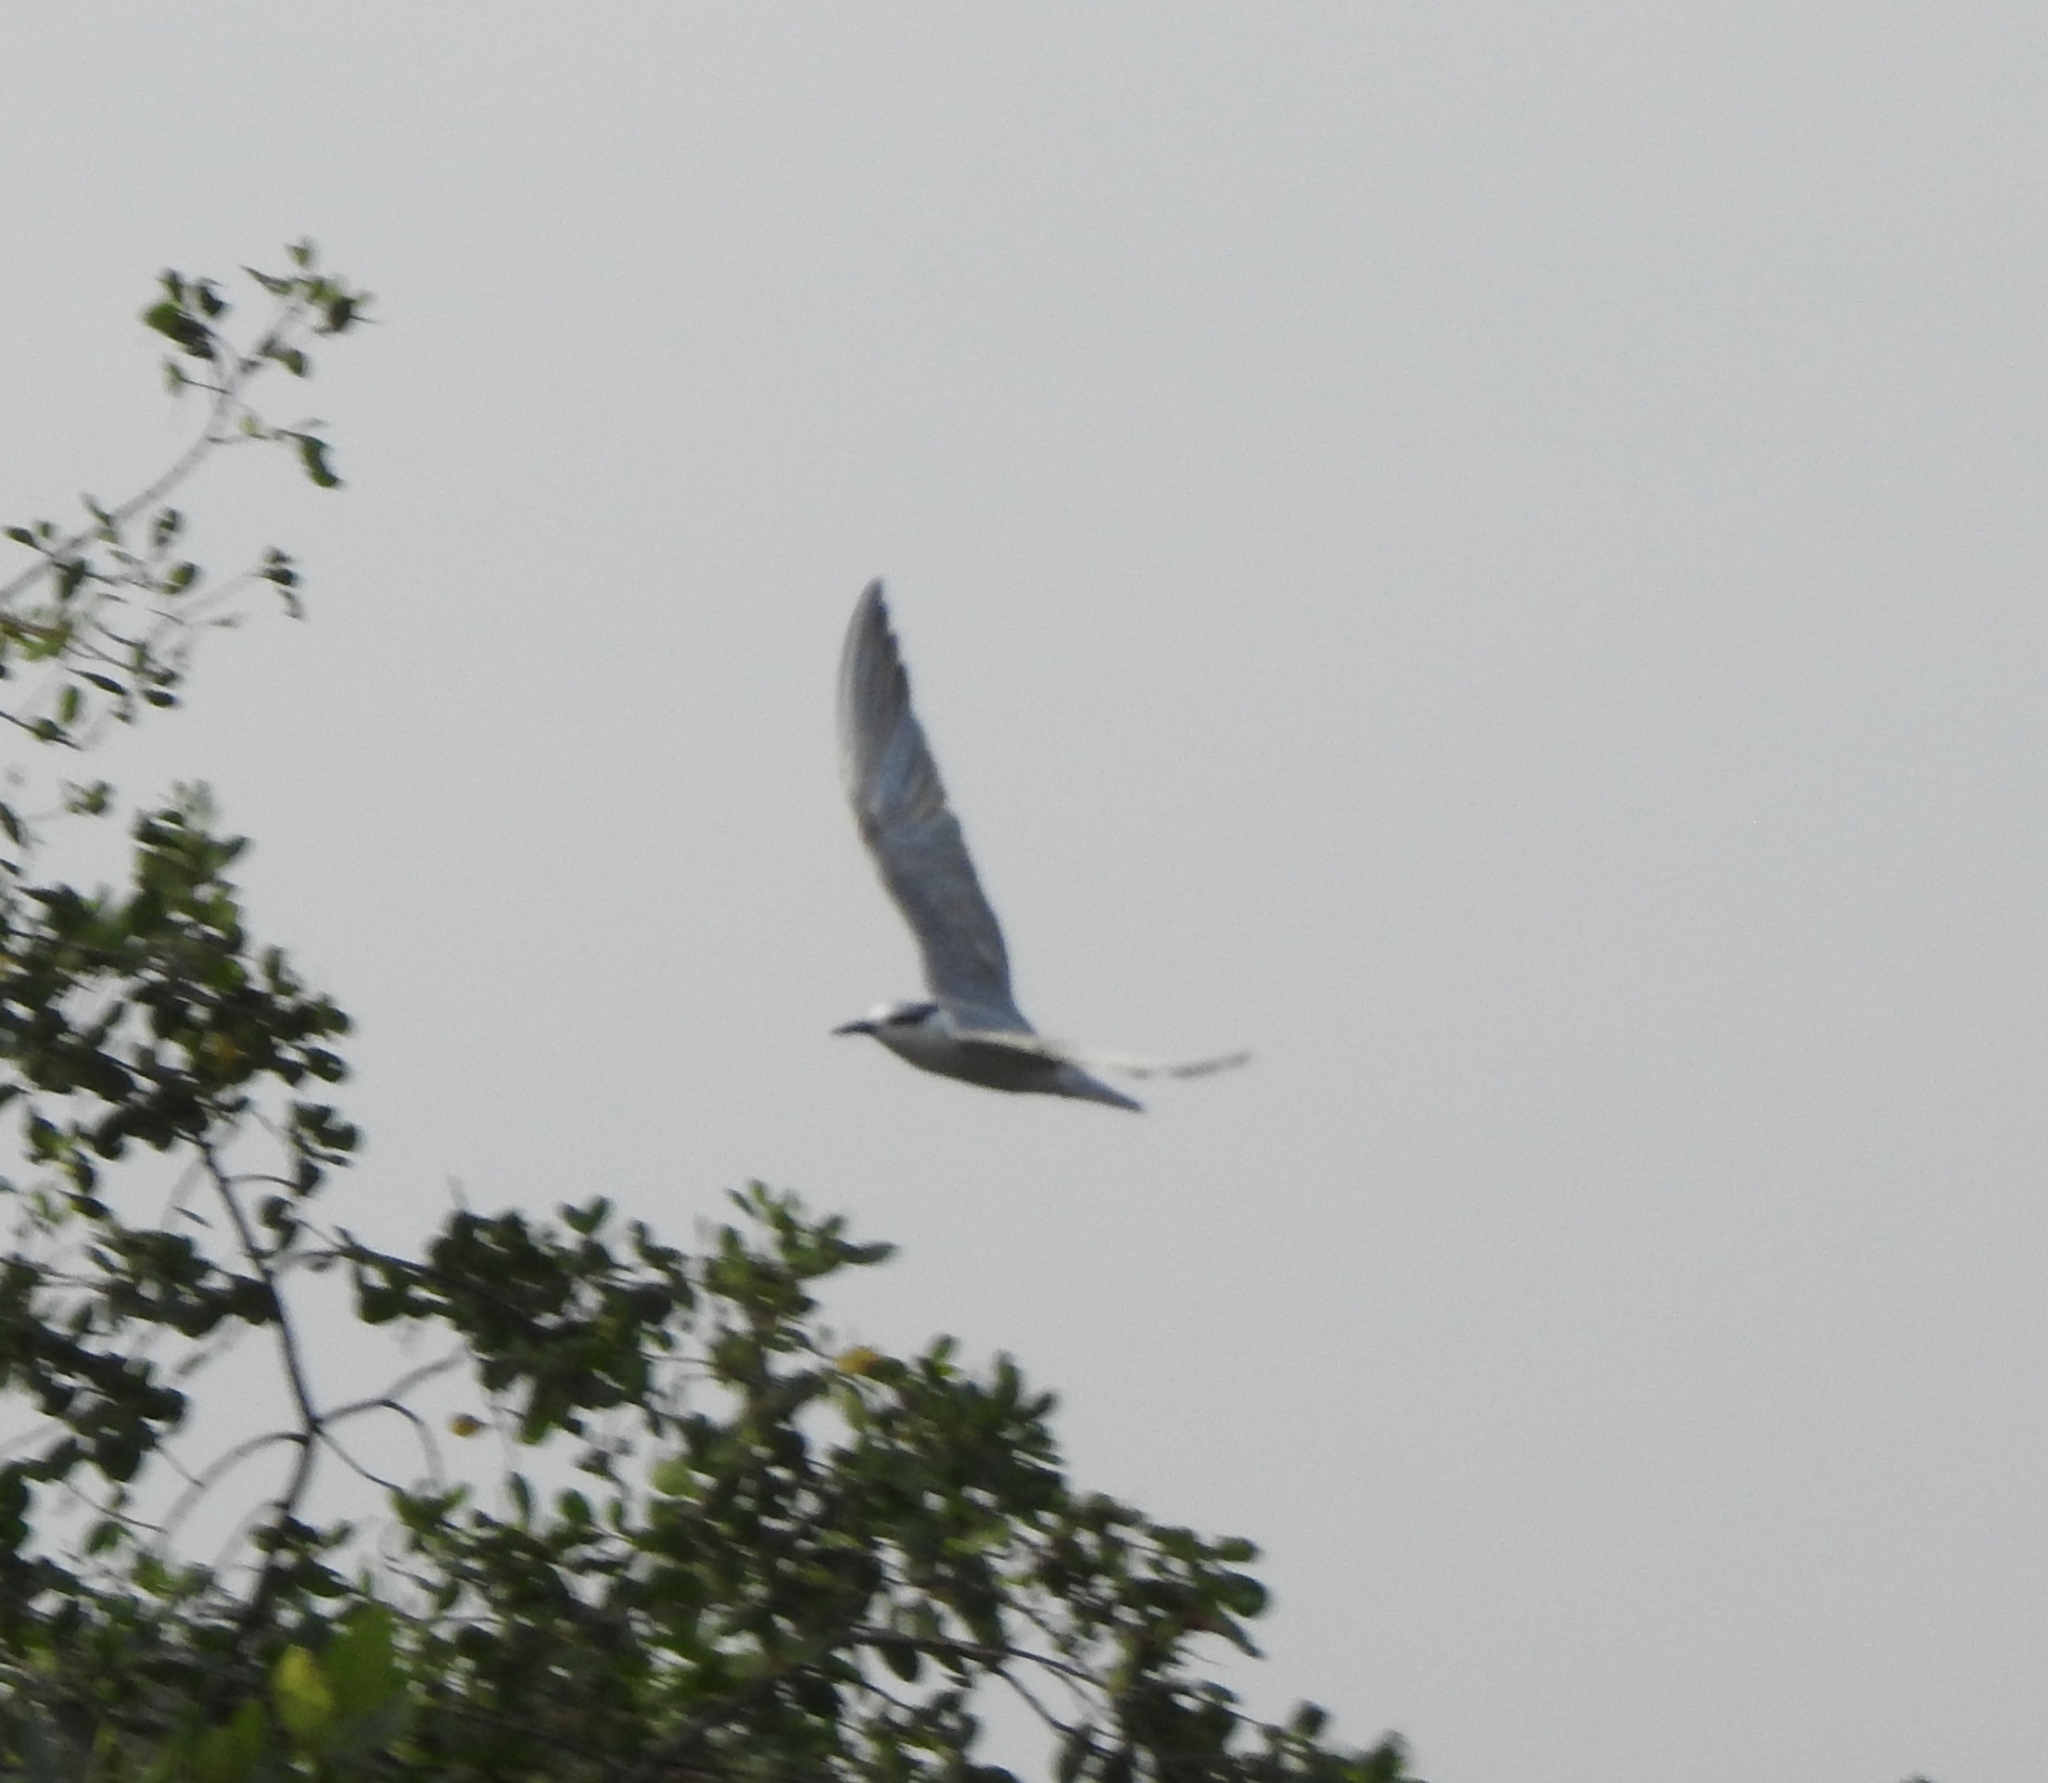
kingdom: Animalia
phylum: Chordata
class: Aves
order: Charadriiformes
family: Laridae
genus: Chlidonias
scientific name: Chlidonias hybrida
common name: Whiskered tern
